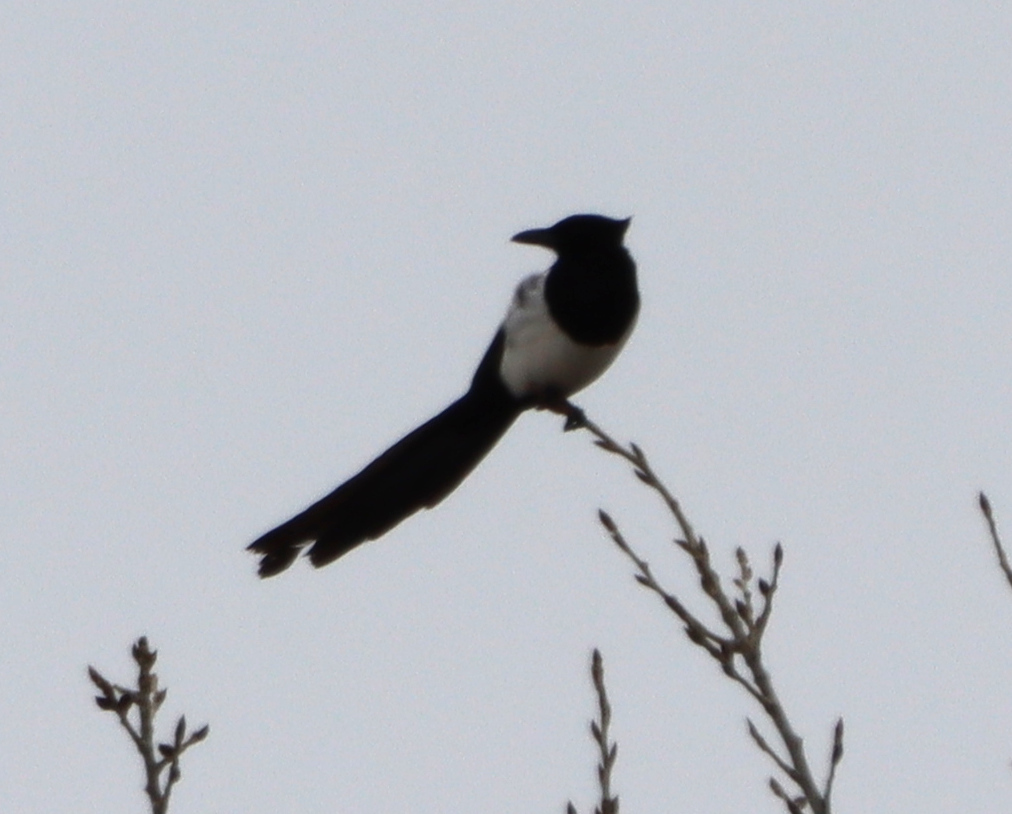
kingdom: Animalia
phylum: Chordata
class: Aves
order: Passeriformes
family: Corvidae
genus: Pica
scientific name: Pica hudsonia
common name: Black-billed magpie
